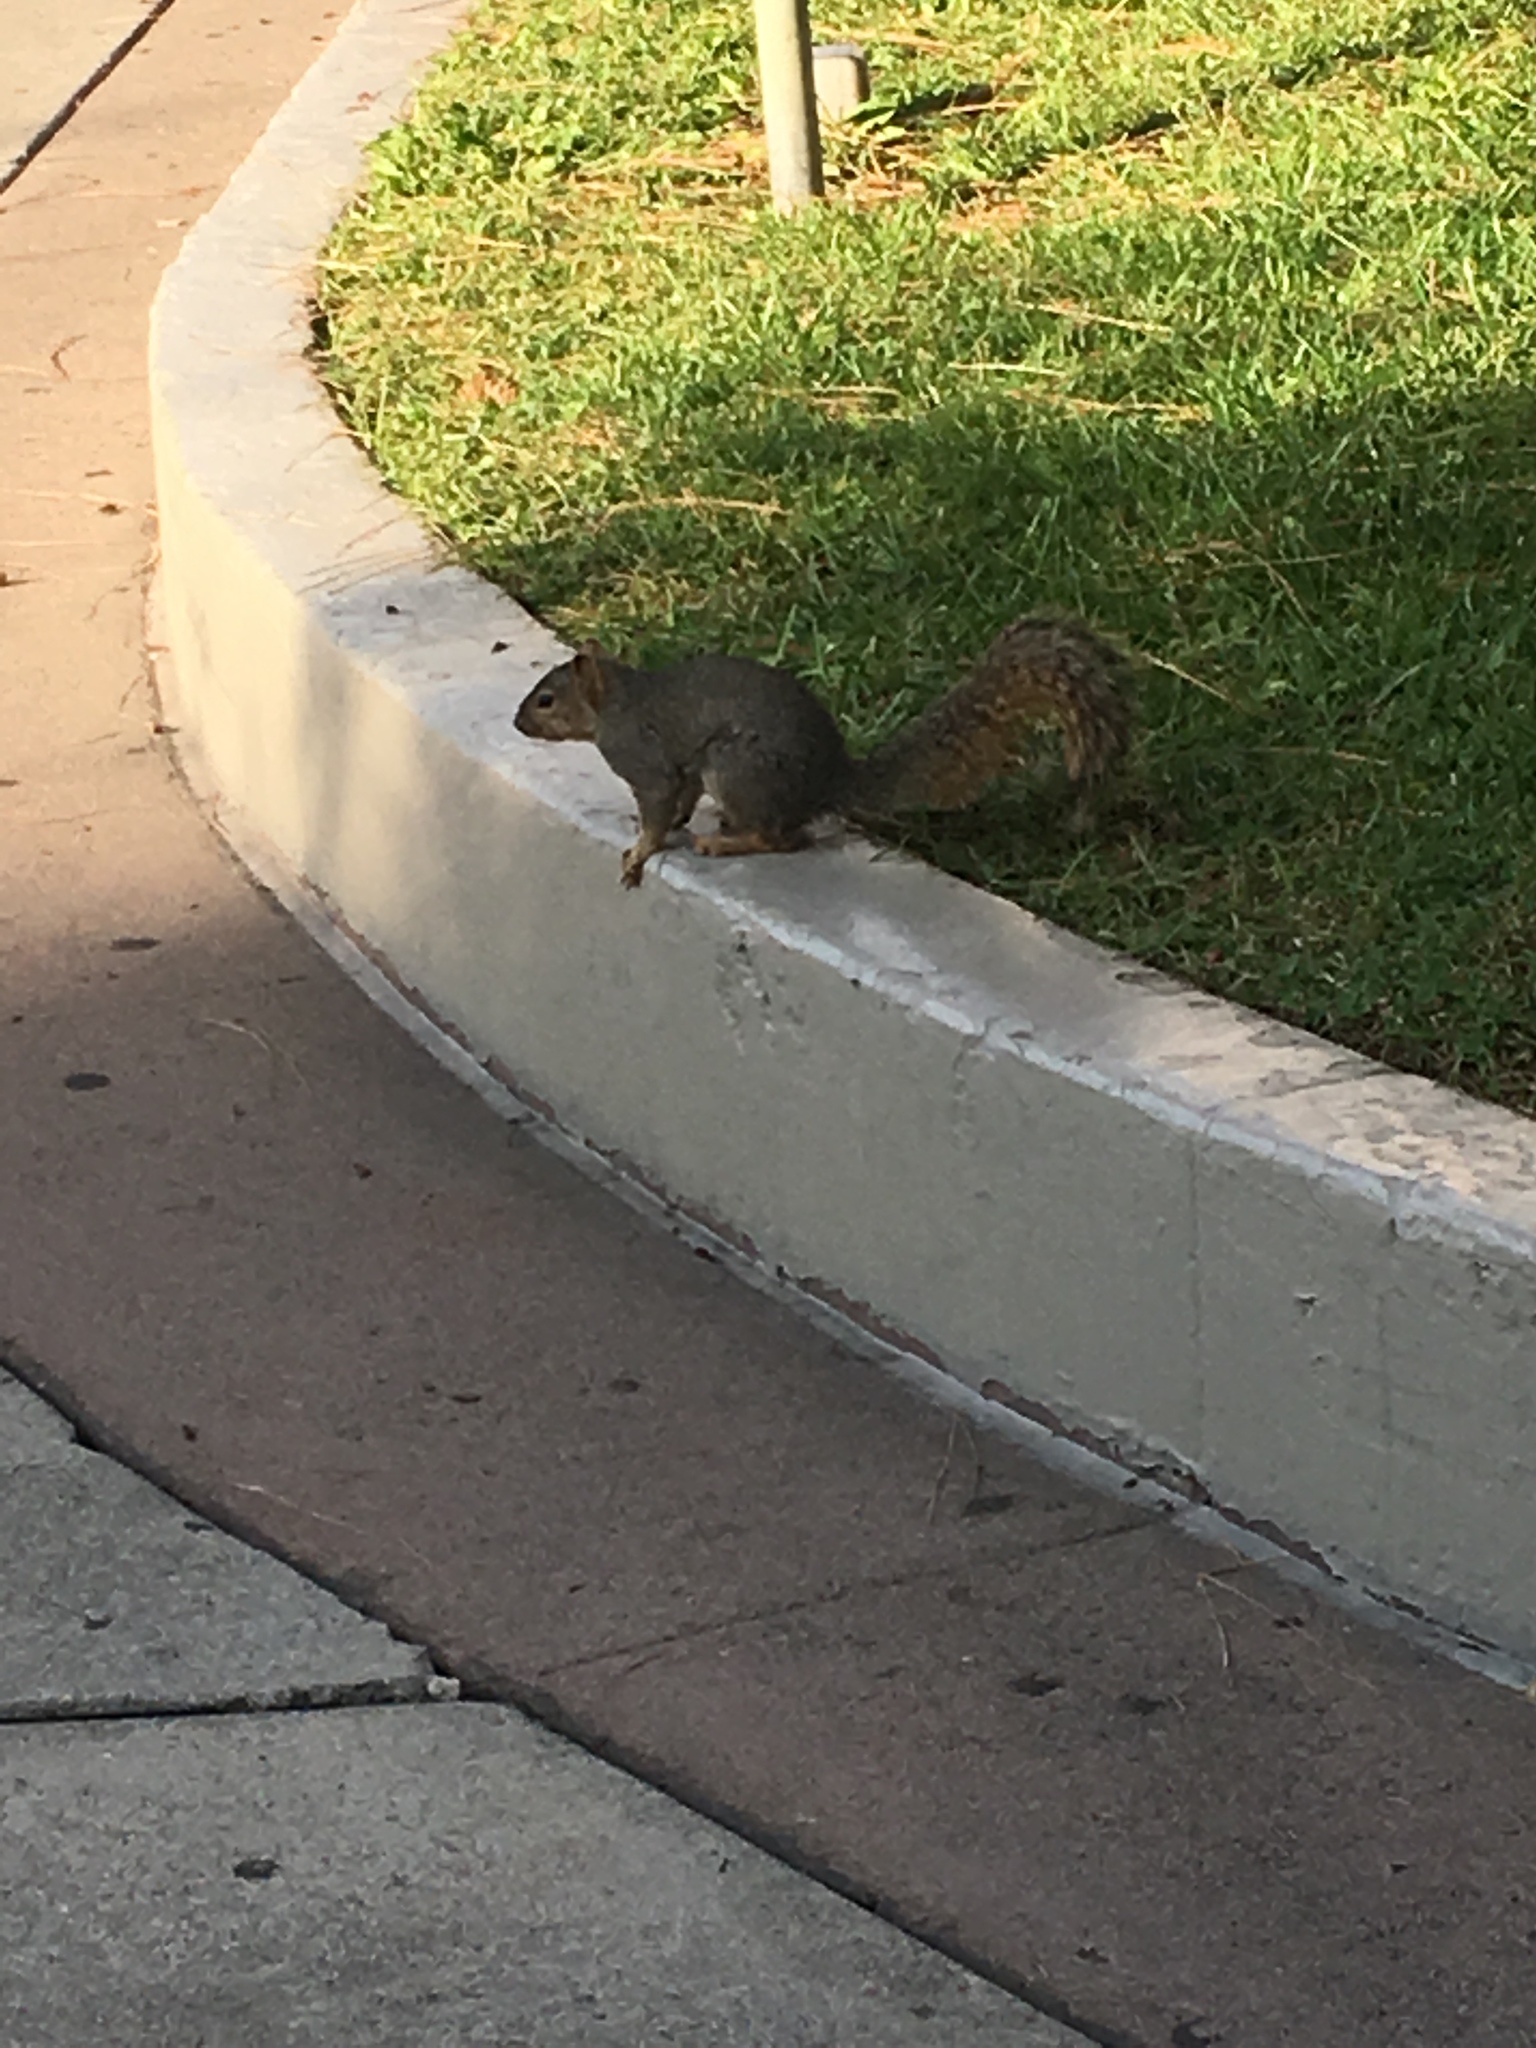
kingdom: Animalia
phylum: Chordata
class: Mammalia
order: Rodentia
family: Sciuridae
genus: Sciurus
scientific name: Sciurus niger
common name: Fox squirrel
